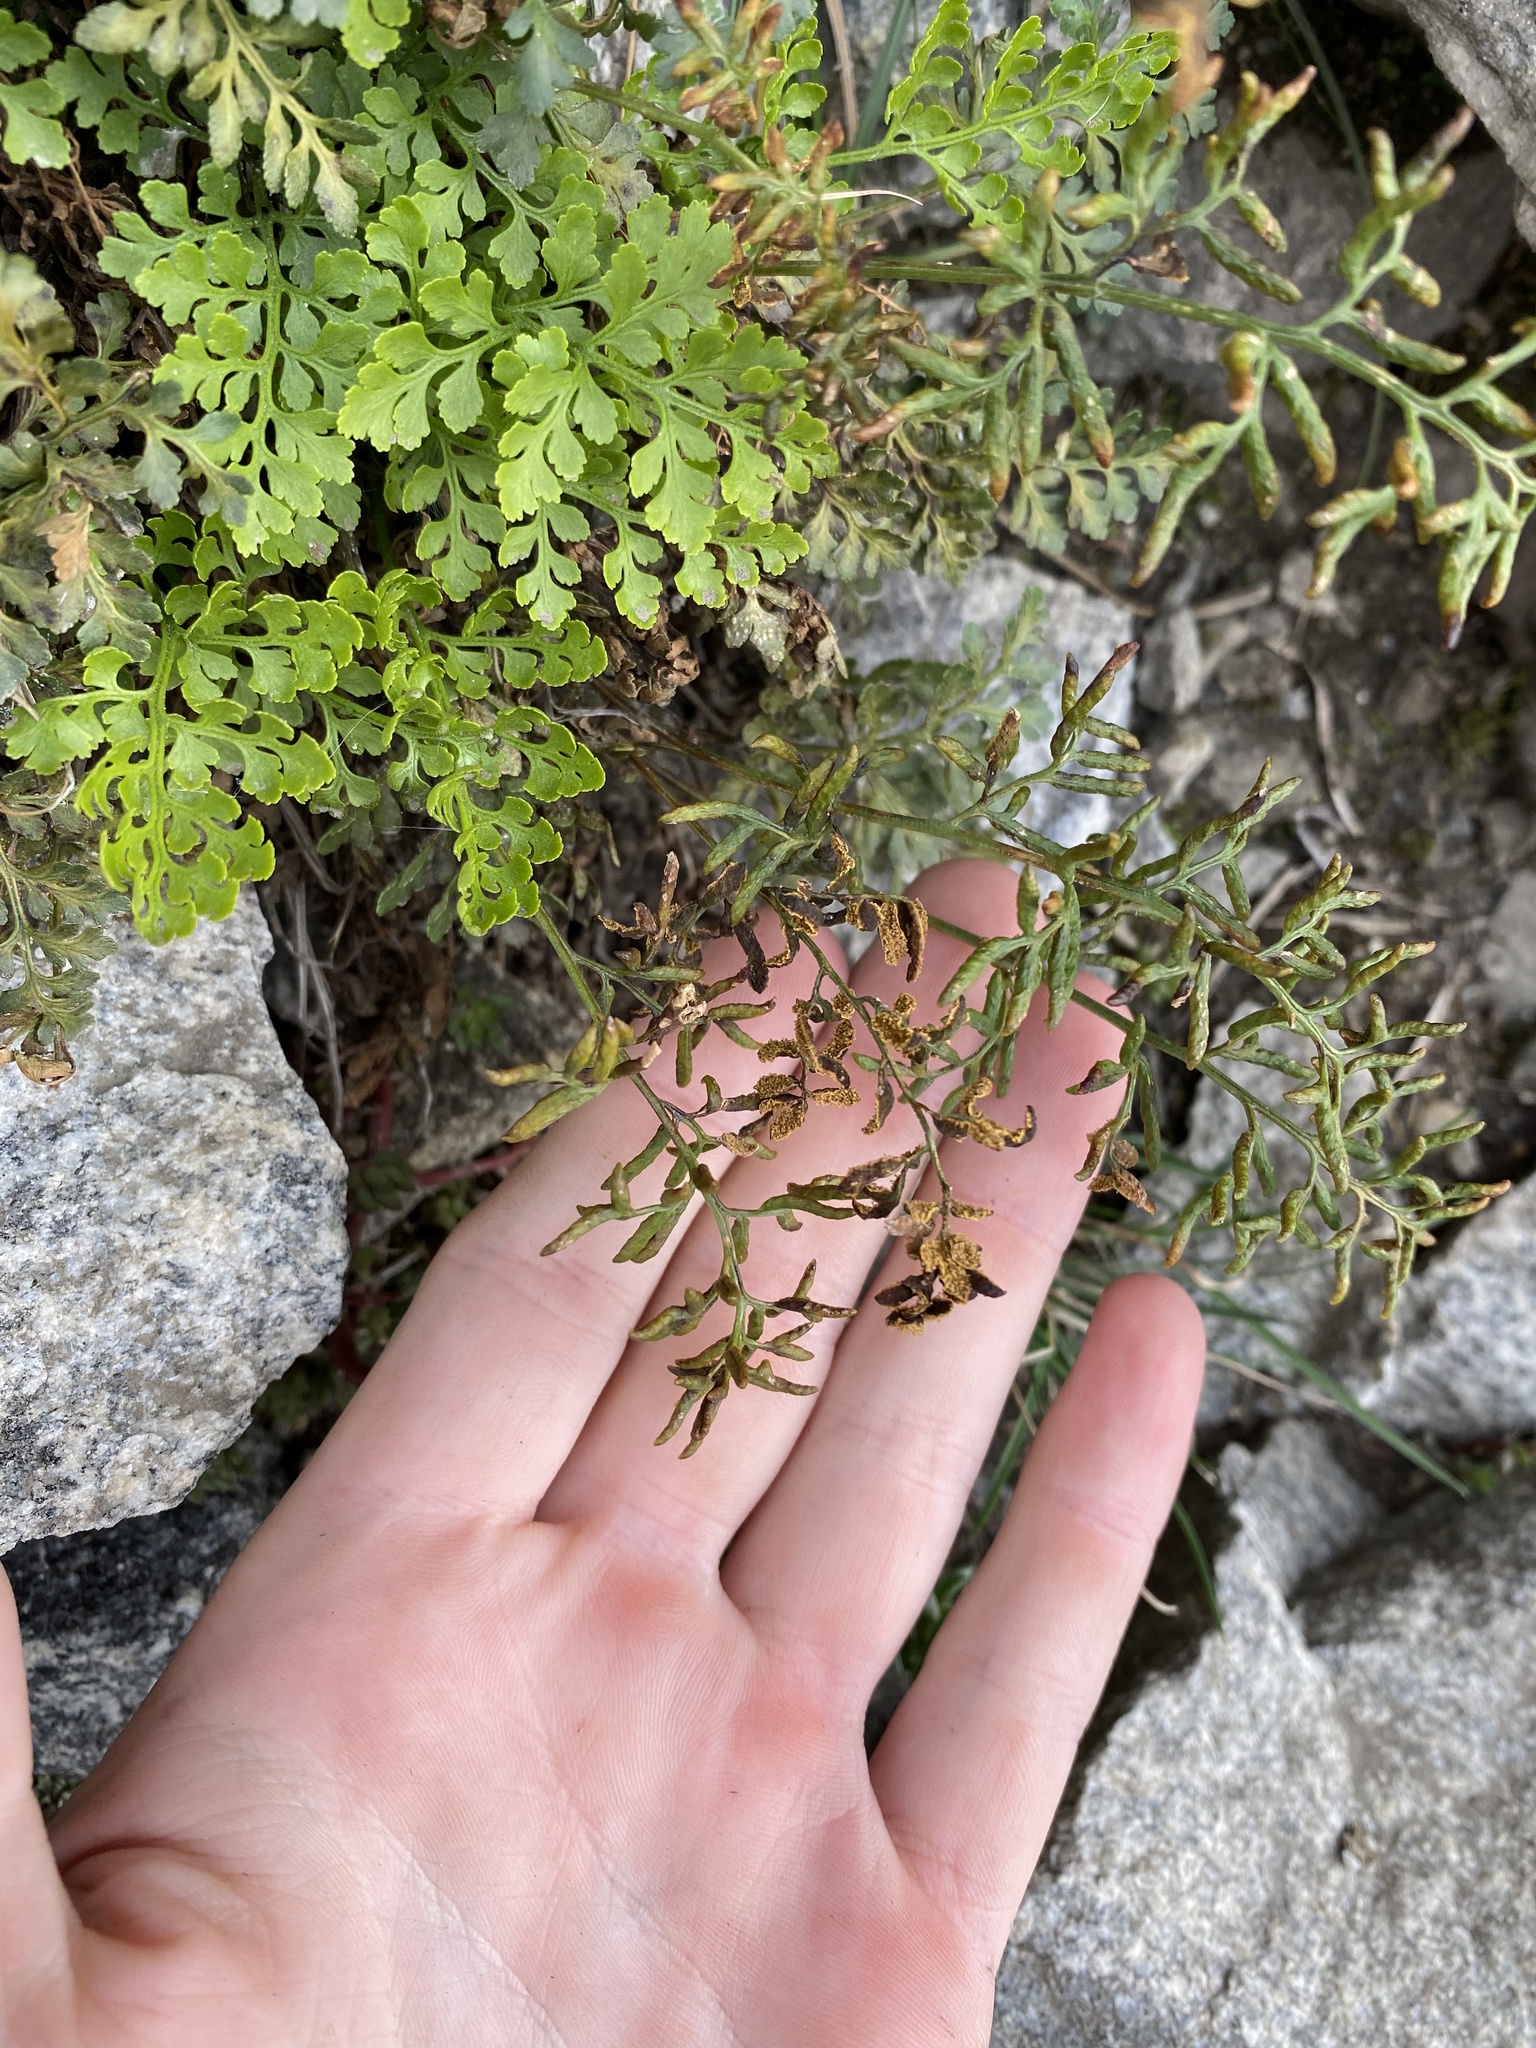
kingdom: Plantae
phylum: Tracheophyta
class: Polypodiopsida
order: Polypodiales
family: Pteridaceae
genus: Cryptogramma
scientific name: Cryptogramma acrostichoides
